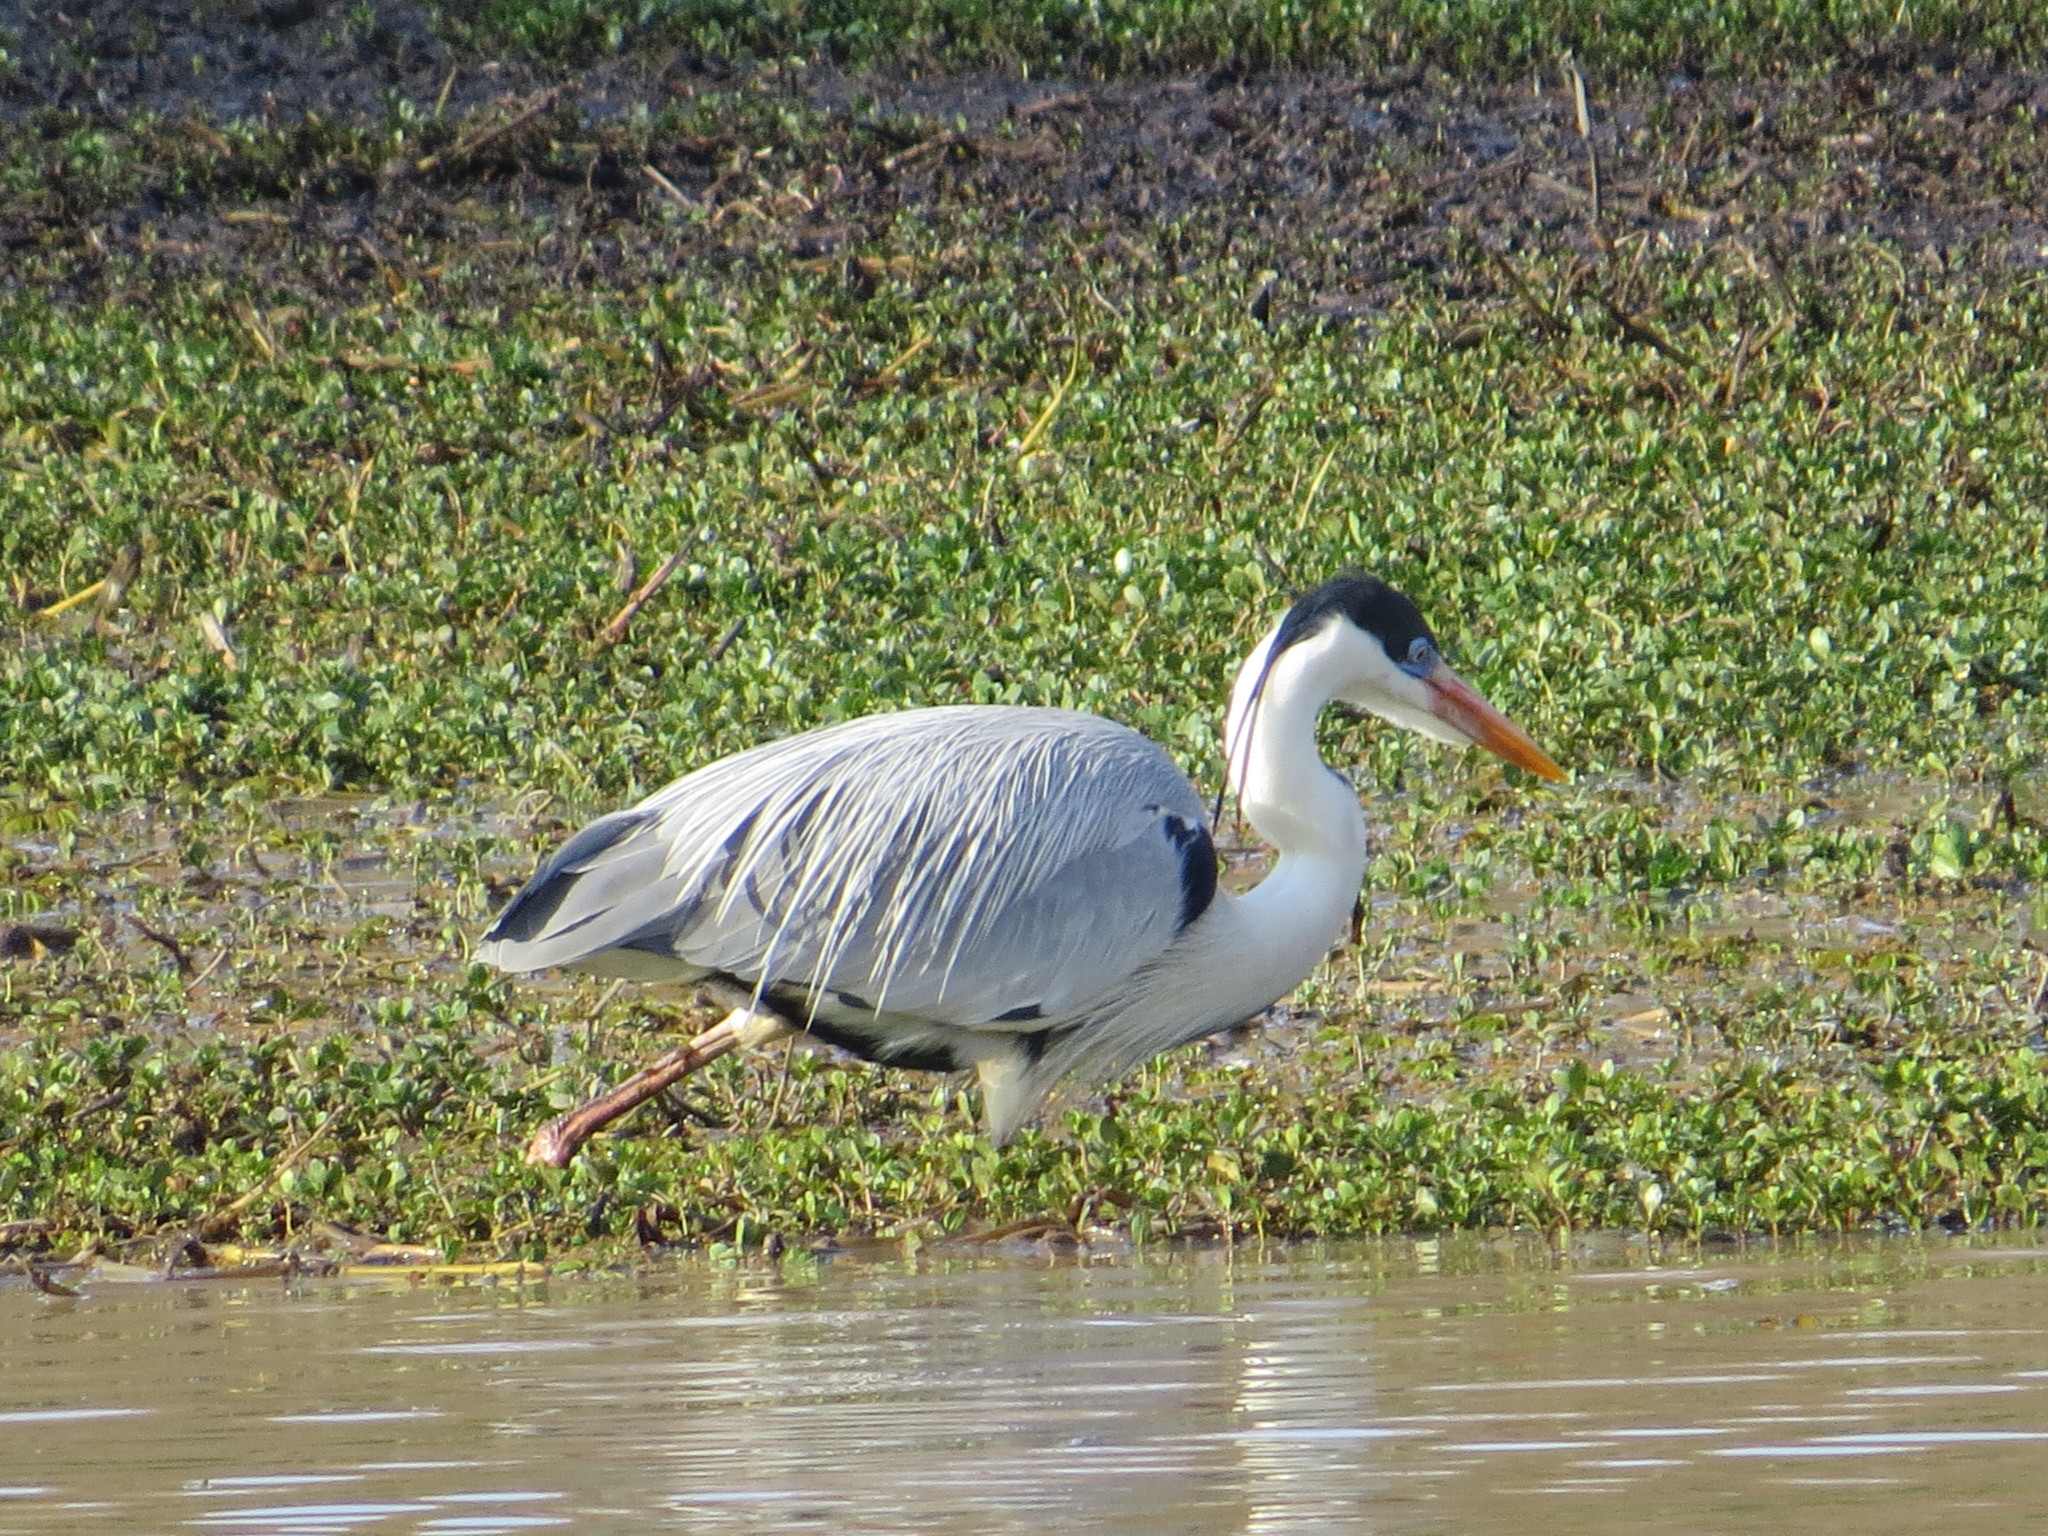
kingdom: Animalia
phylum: Chordata
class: Aves
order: Pelecaniformes
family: Ardeidae
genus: Ardea
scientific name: Ardea cocoi
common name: Cocoi heron
